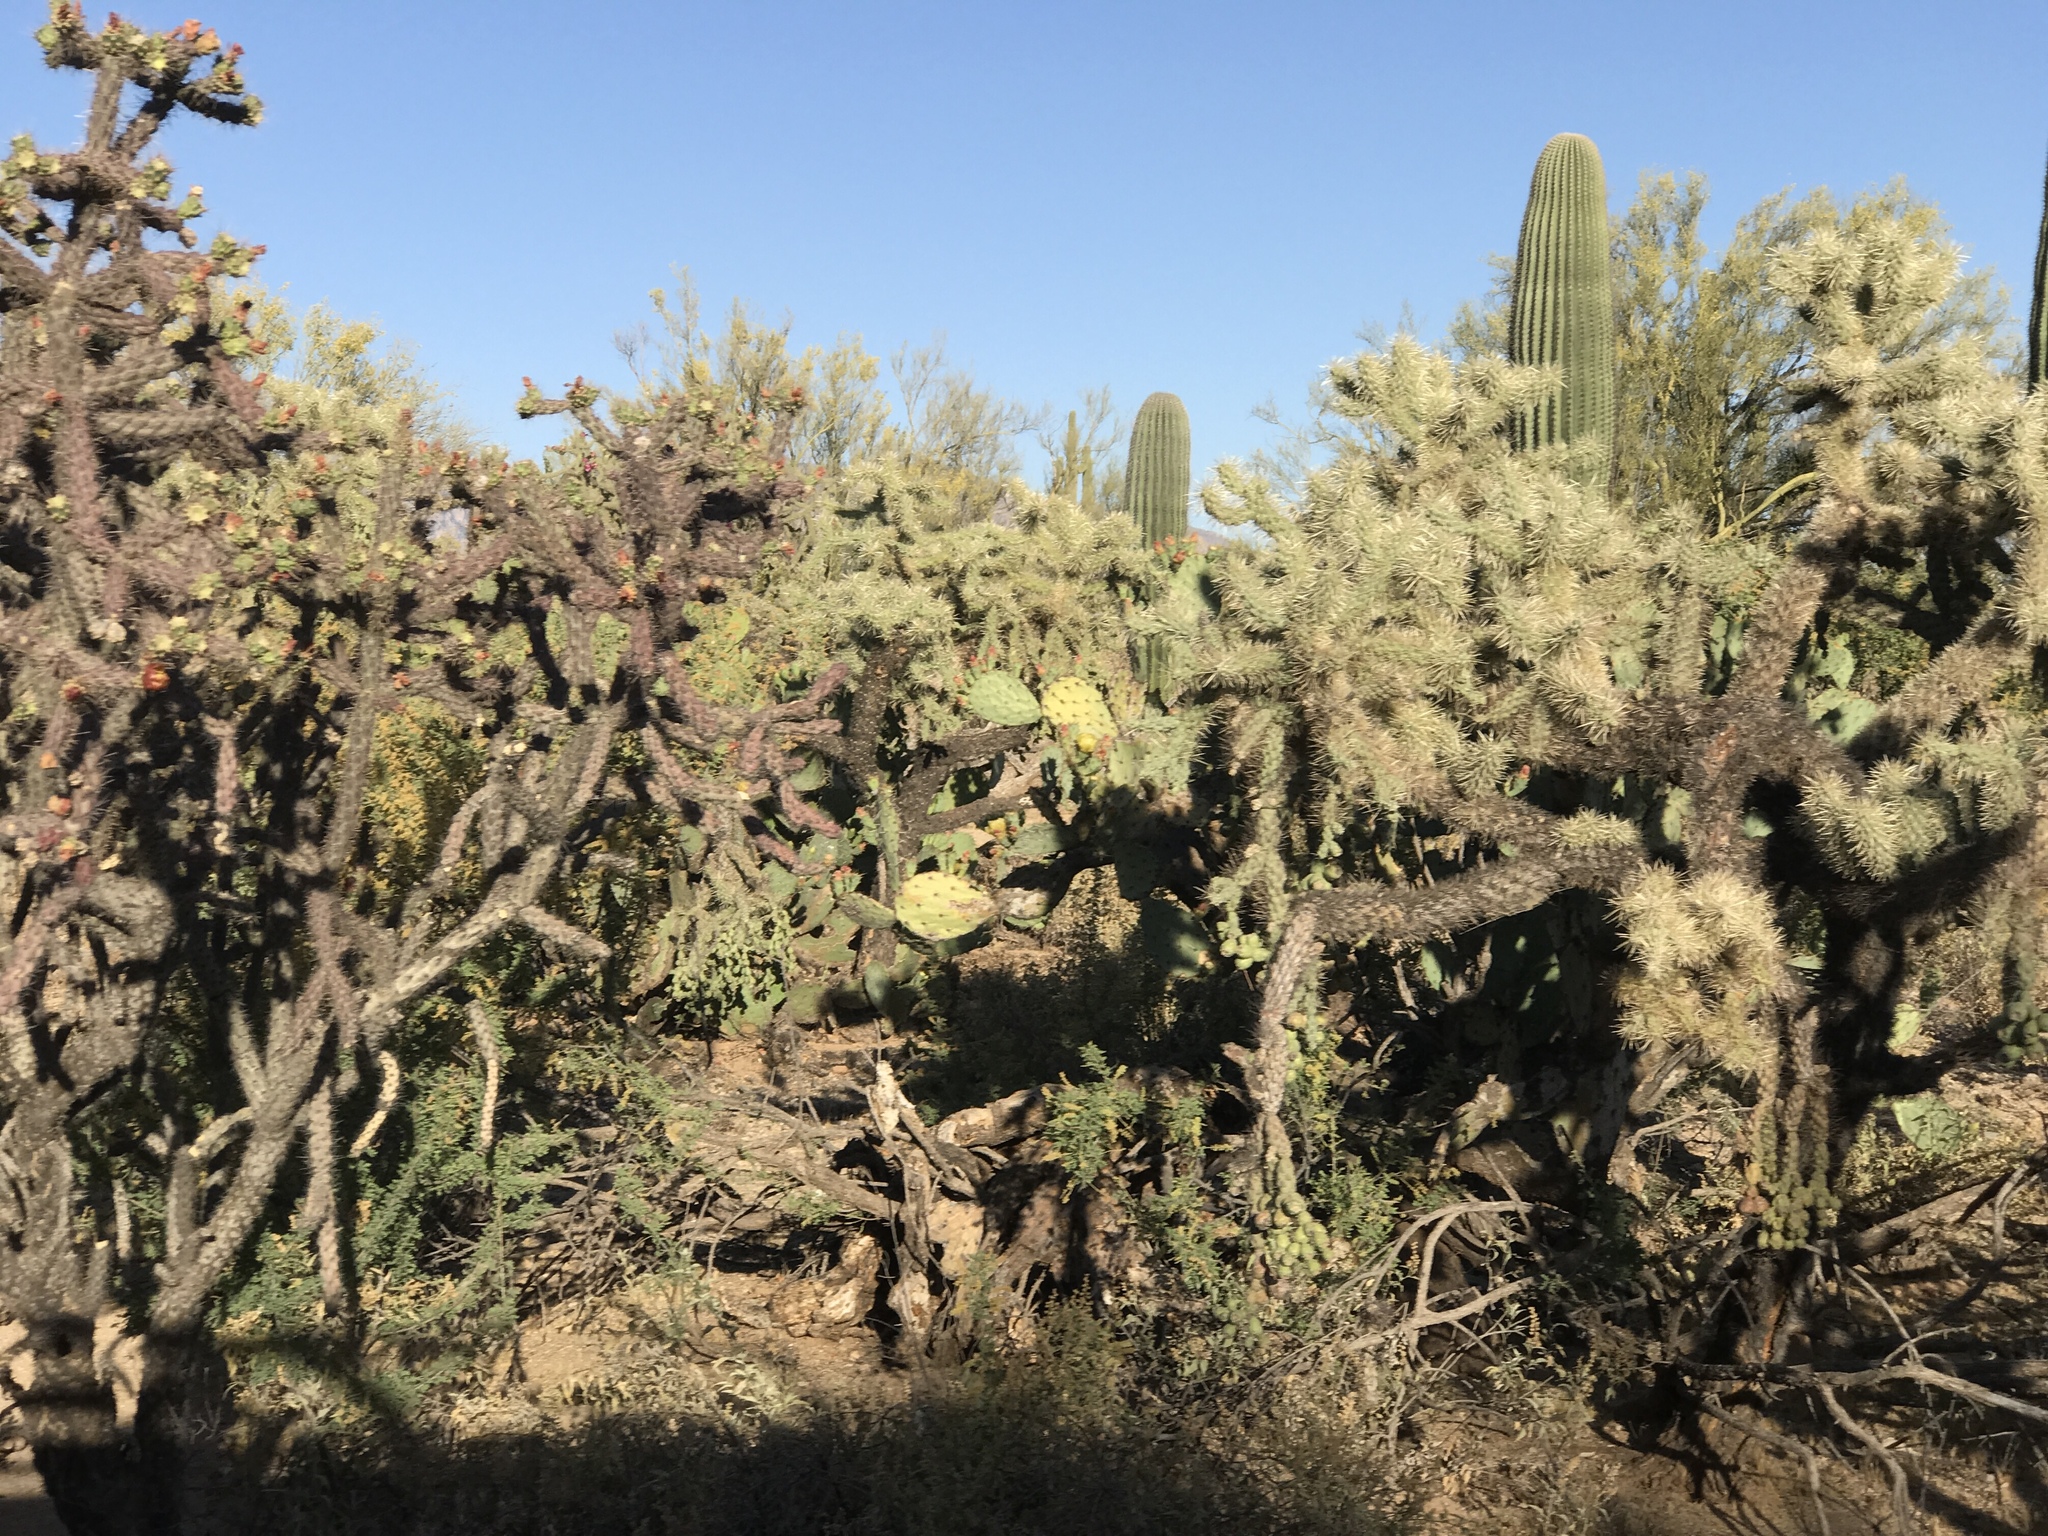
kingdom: Plantae
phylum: Tracheophyta
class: Magnoliopsida
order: Caryophyllales
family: Cactaceae
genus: Cylindropuntia
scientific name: Cylindropuntia fulgida
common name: Jumping cholla
